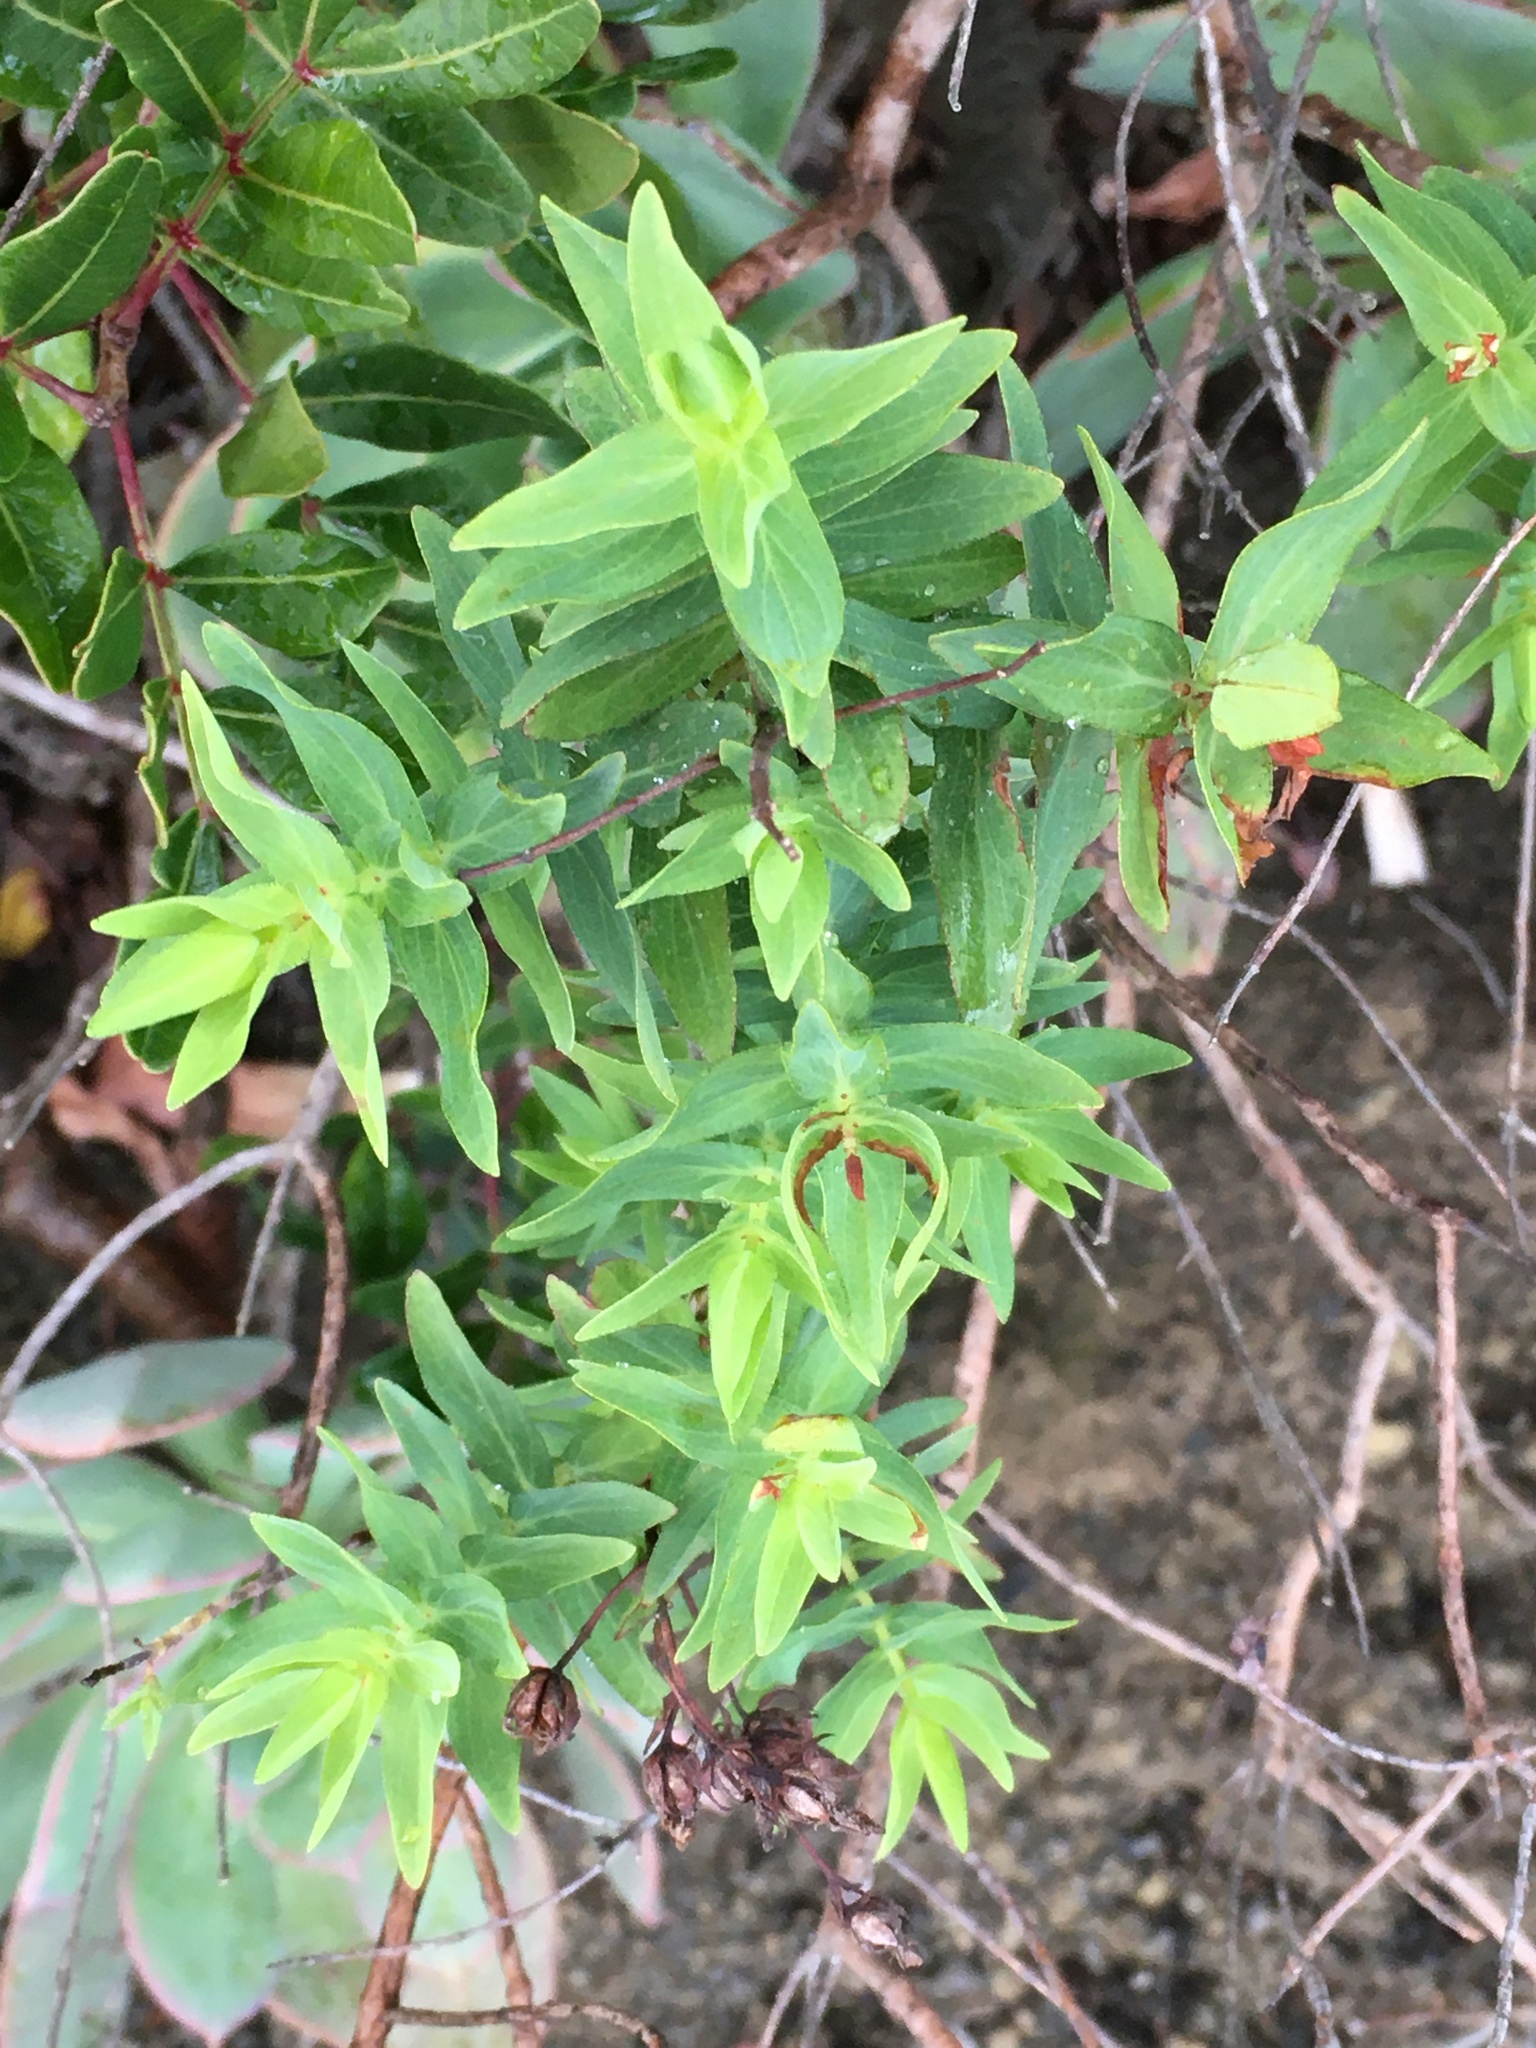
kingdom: Plantae
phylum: Tracheophyta
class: Magnoliopsida
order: Malpighiales
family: Hypericaceae
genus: Hypericum
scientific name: Hypericum reflexum
